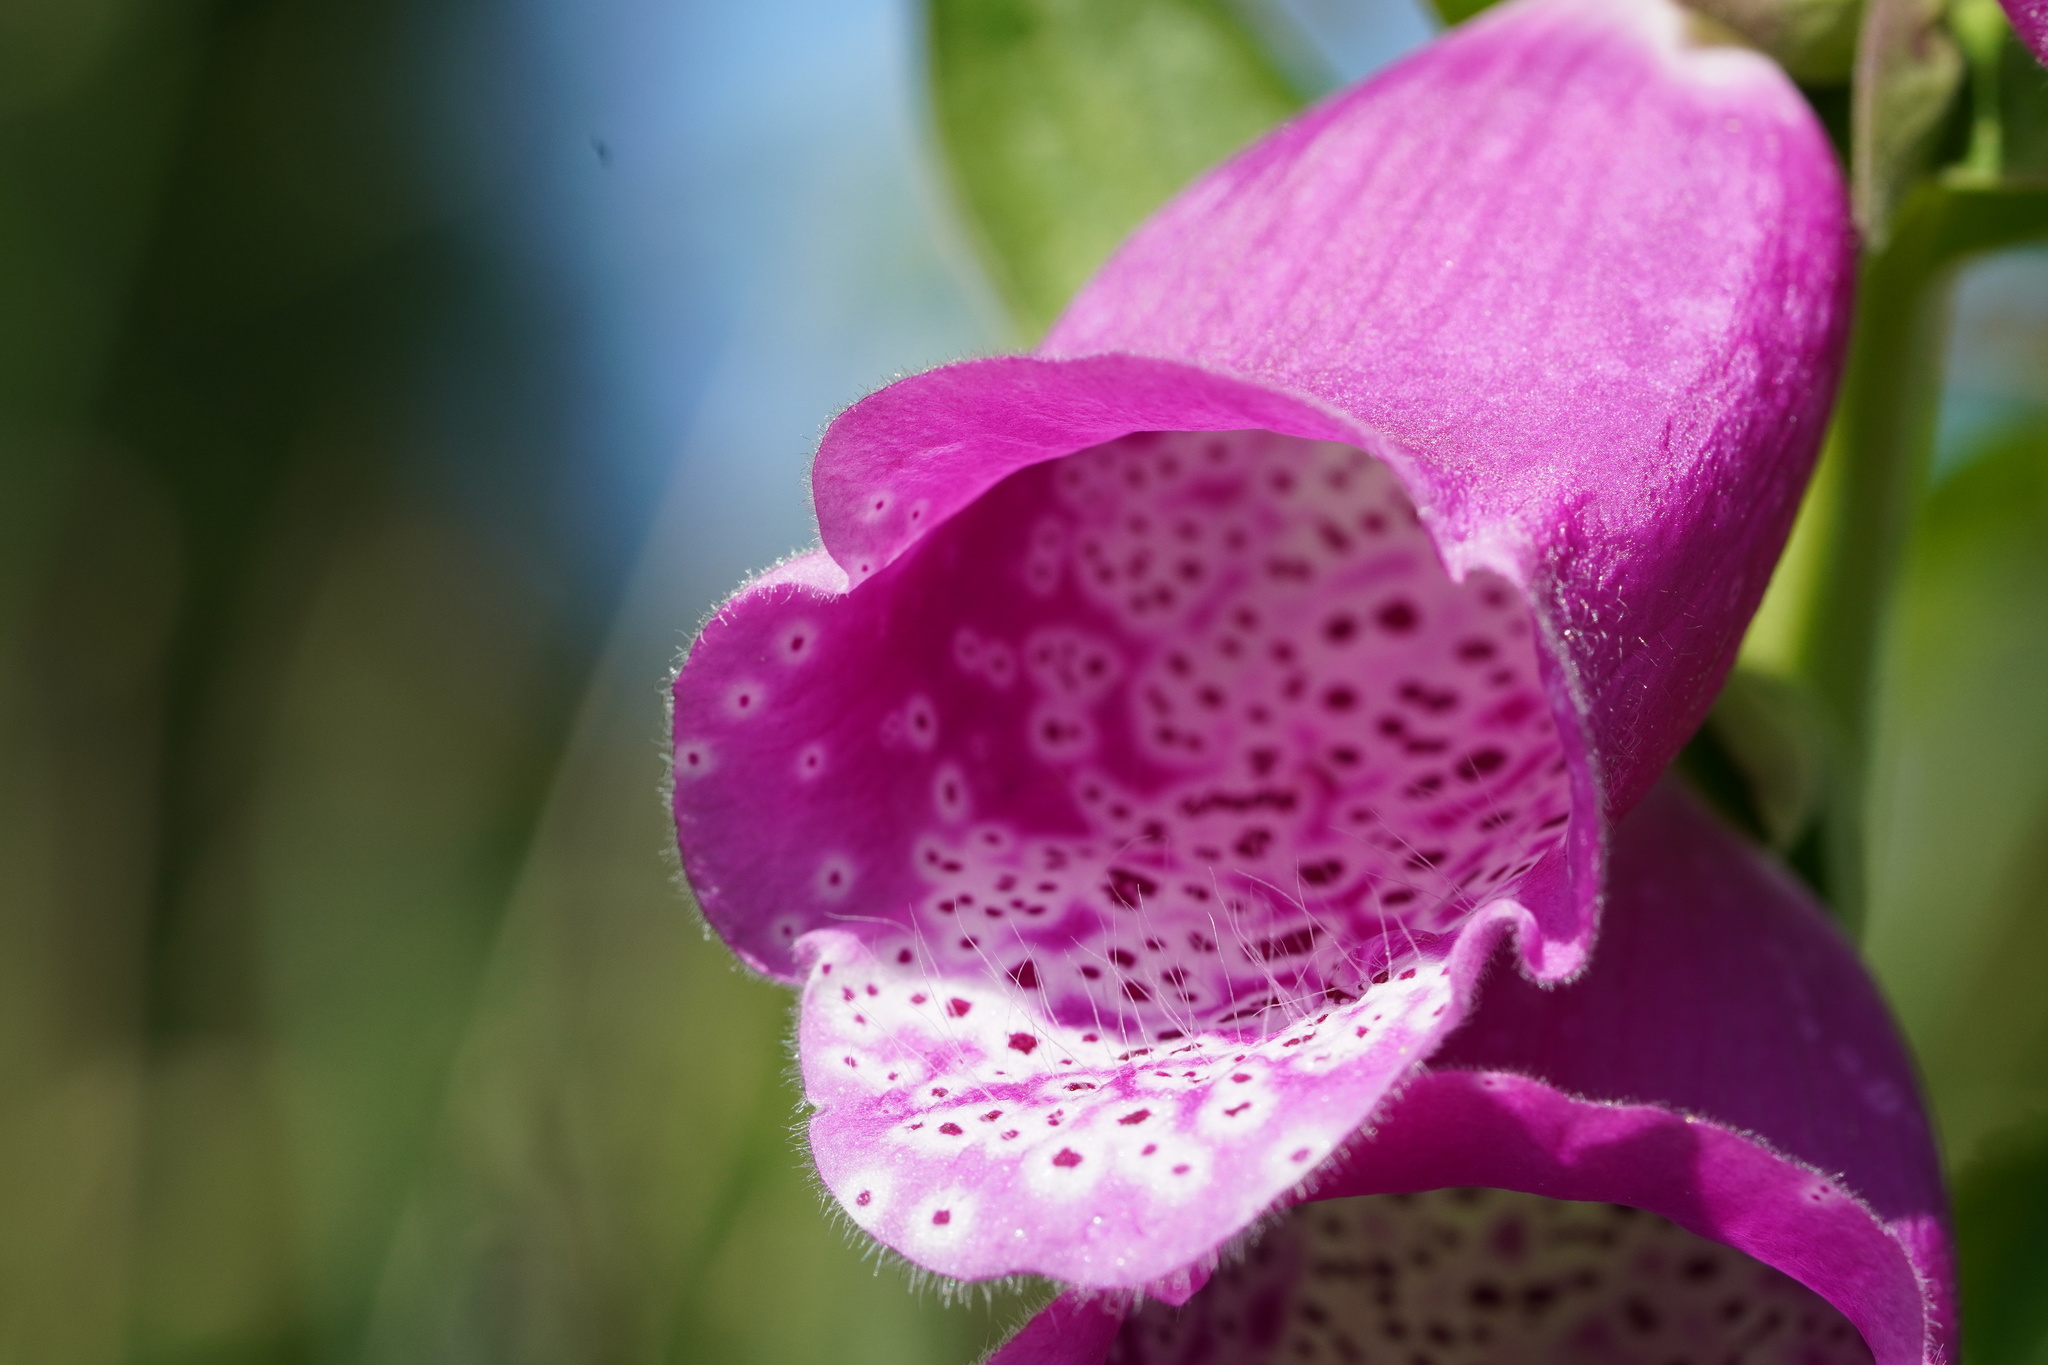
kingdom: Plantae
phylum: Tracheophyta
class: Magnoliopsida
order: Lamiales
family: Plantaginaceae
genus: Digitalis
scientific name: Digitalis purpurea
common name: Foxglove
